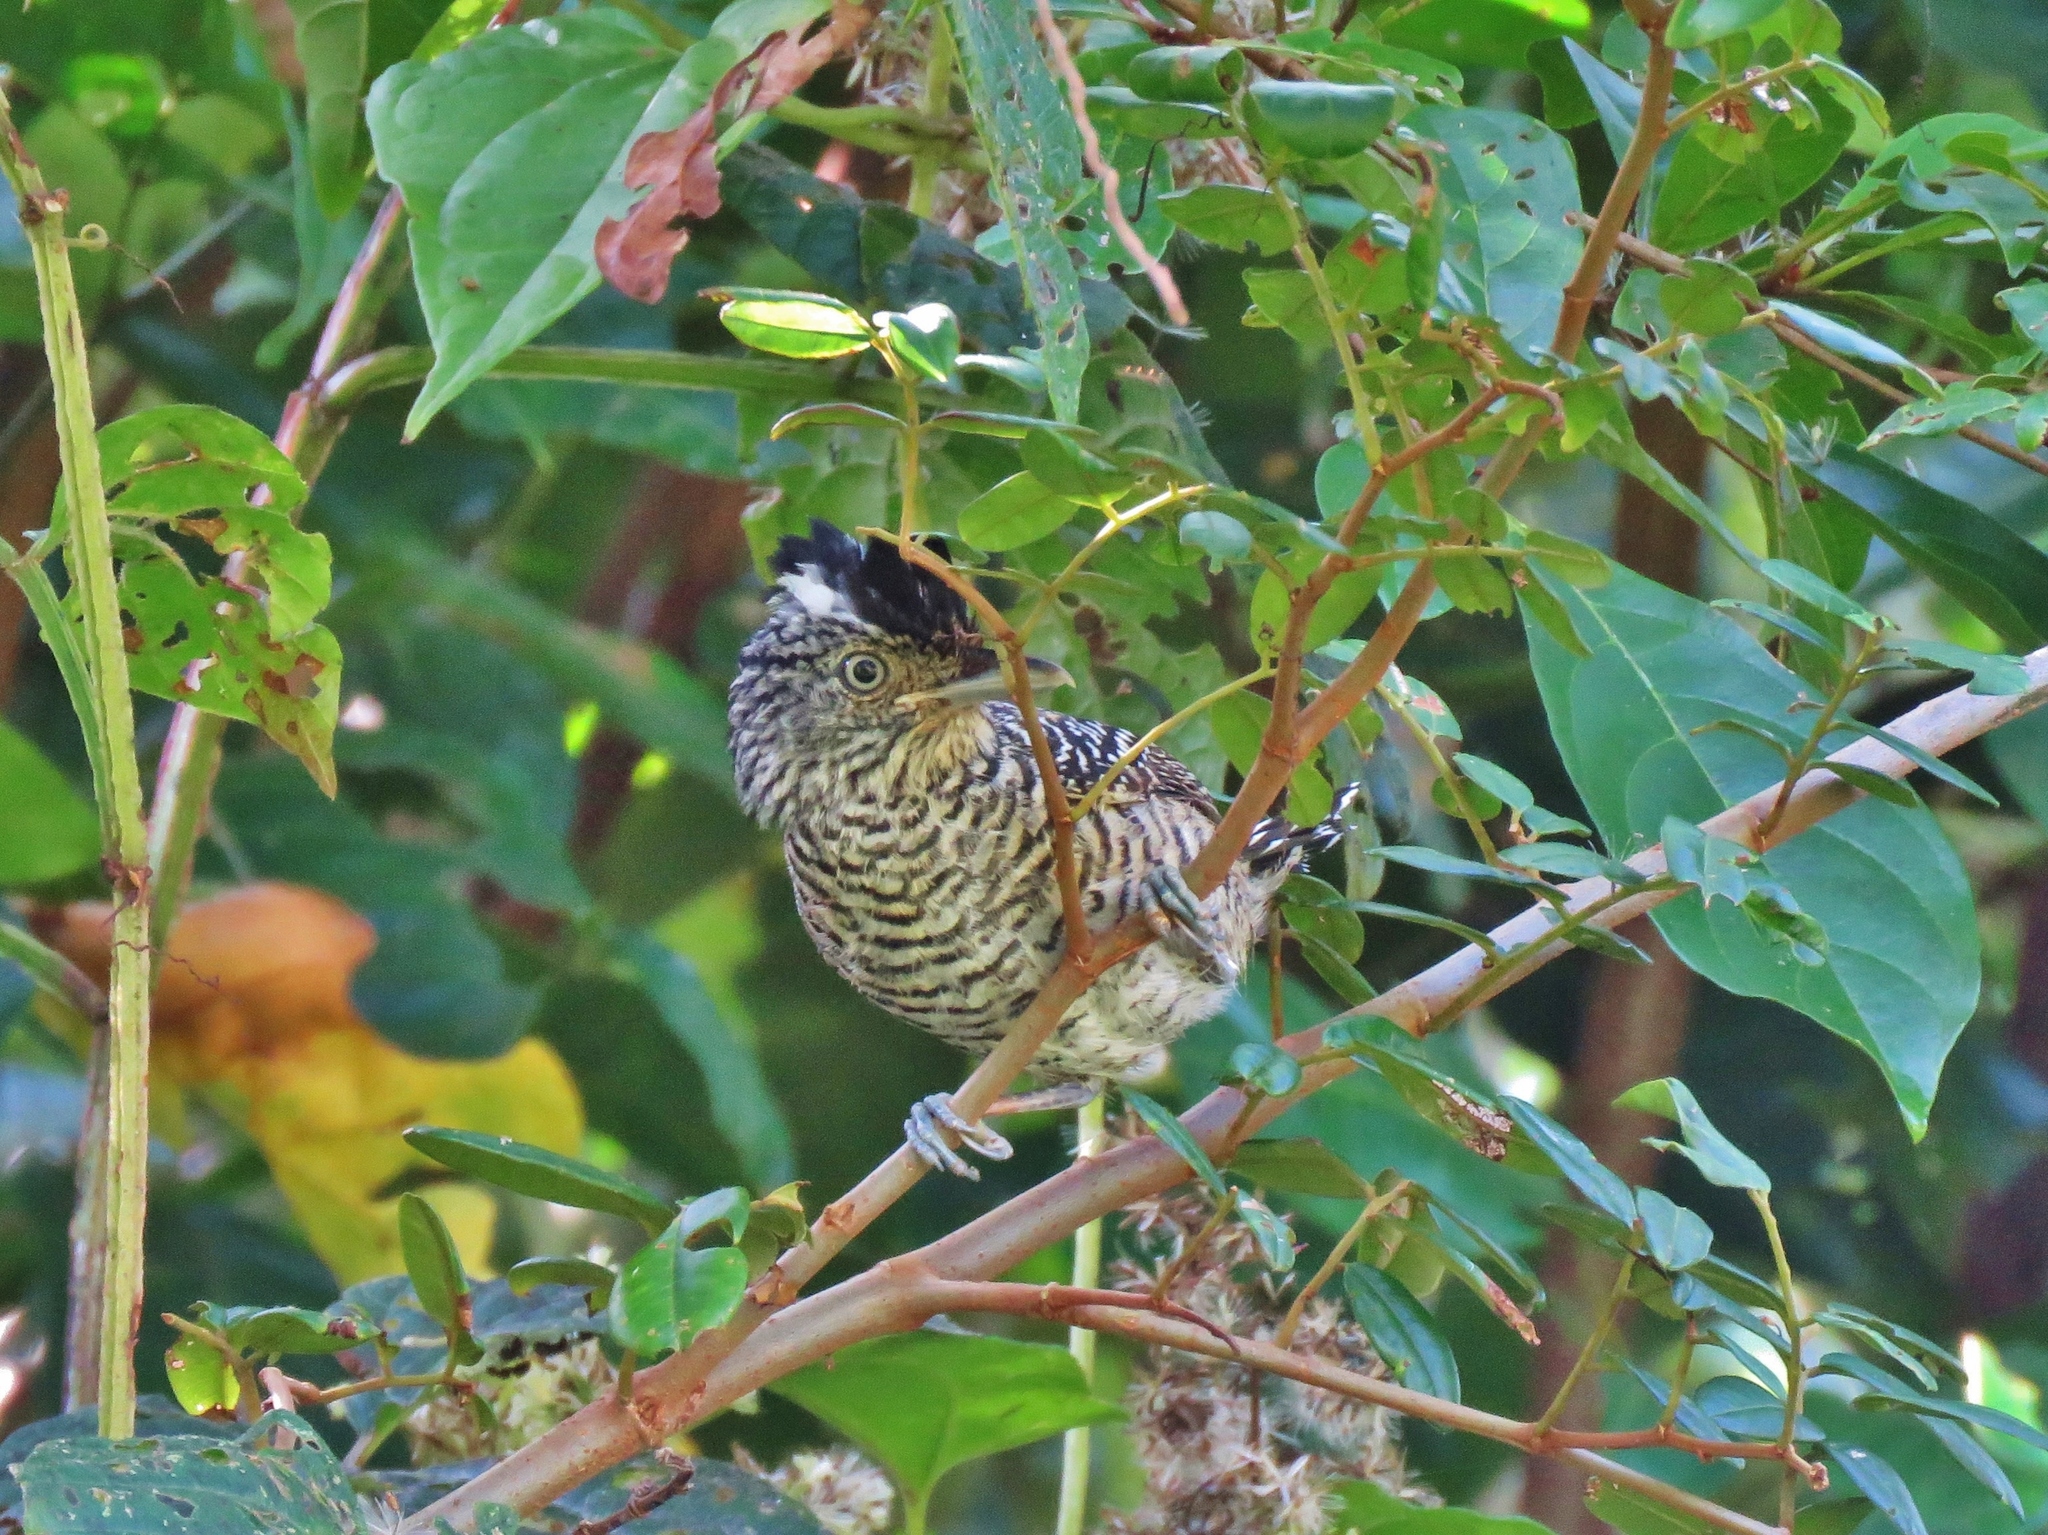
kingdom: Animalia
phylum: Chordata
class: Aves
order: Passeriformes
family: Thamnophilidae
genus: Thamnophilus
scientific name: Thamnophilus doliatus
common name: Barred antshrike
